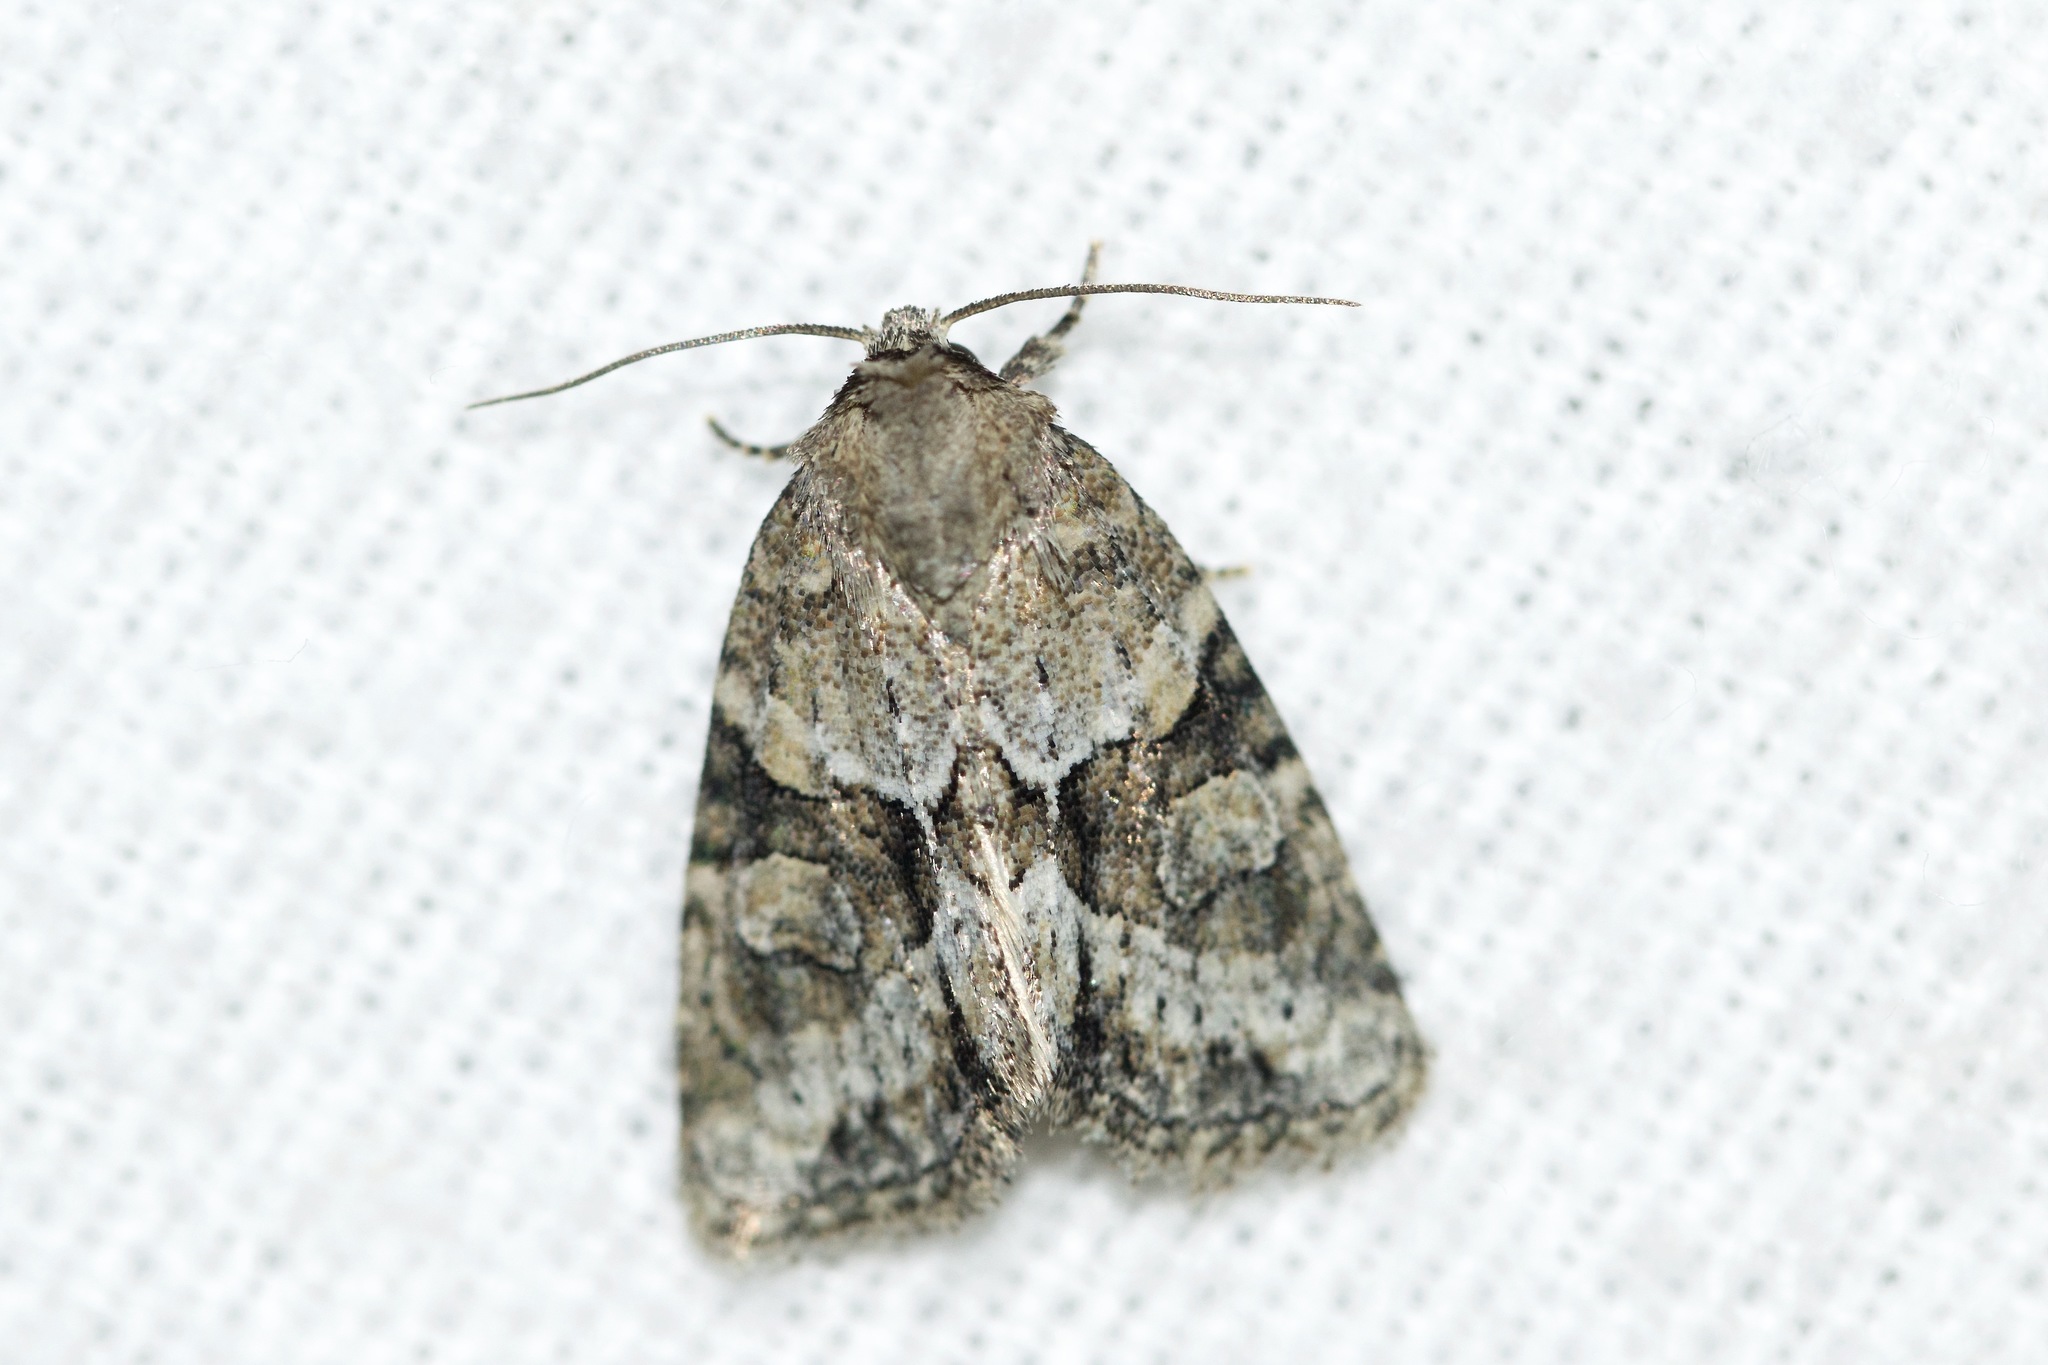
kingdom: Animalia
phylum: Arthropoda
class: Insecta
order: Lepidoptera
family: Noctuidae
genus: Neoligia
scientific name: Neoligia exhausta
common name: Exhausted brocade
